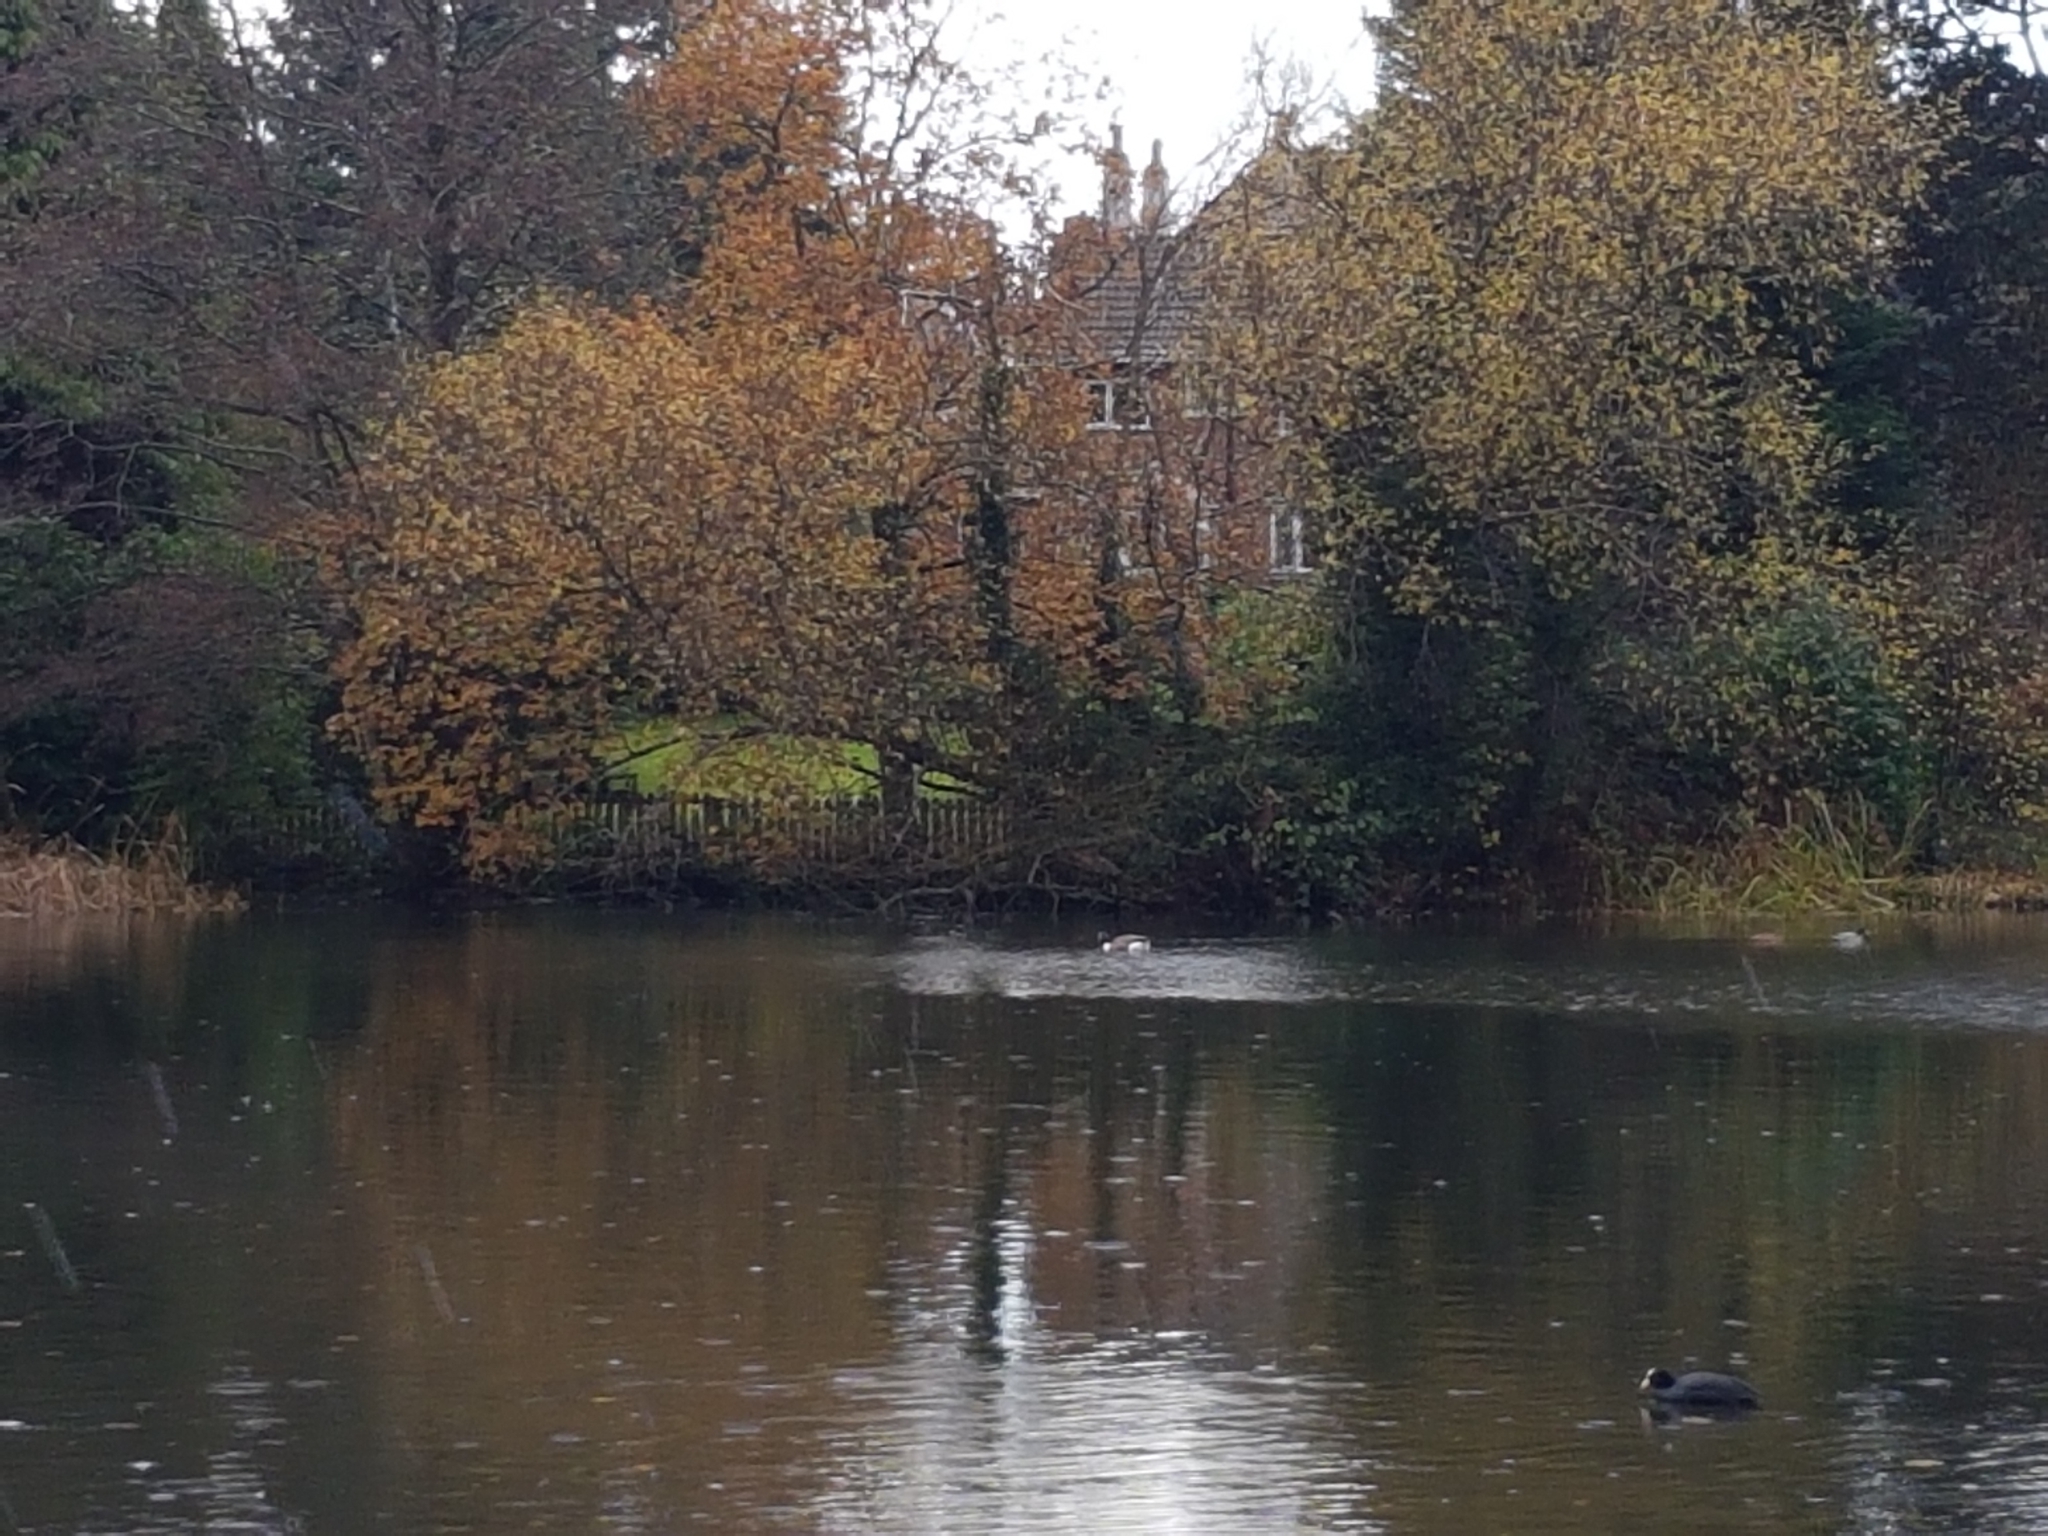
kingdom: Animalia
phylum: Chordata
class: Aves
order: Anseriformes
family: Anatidae
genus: Branta
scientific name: Branta canadensis
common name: Canada goose
